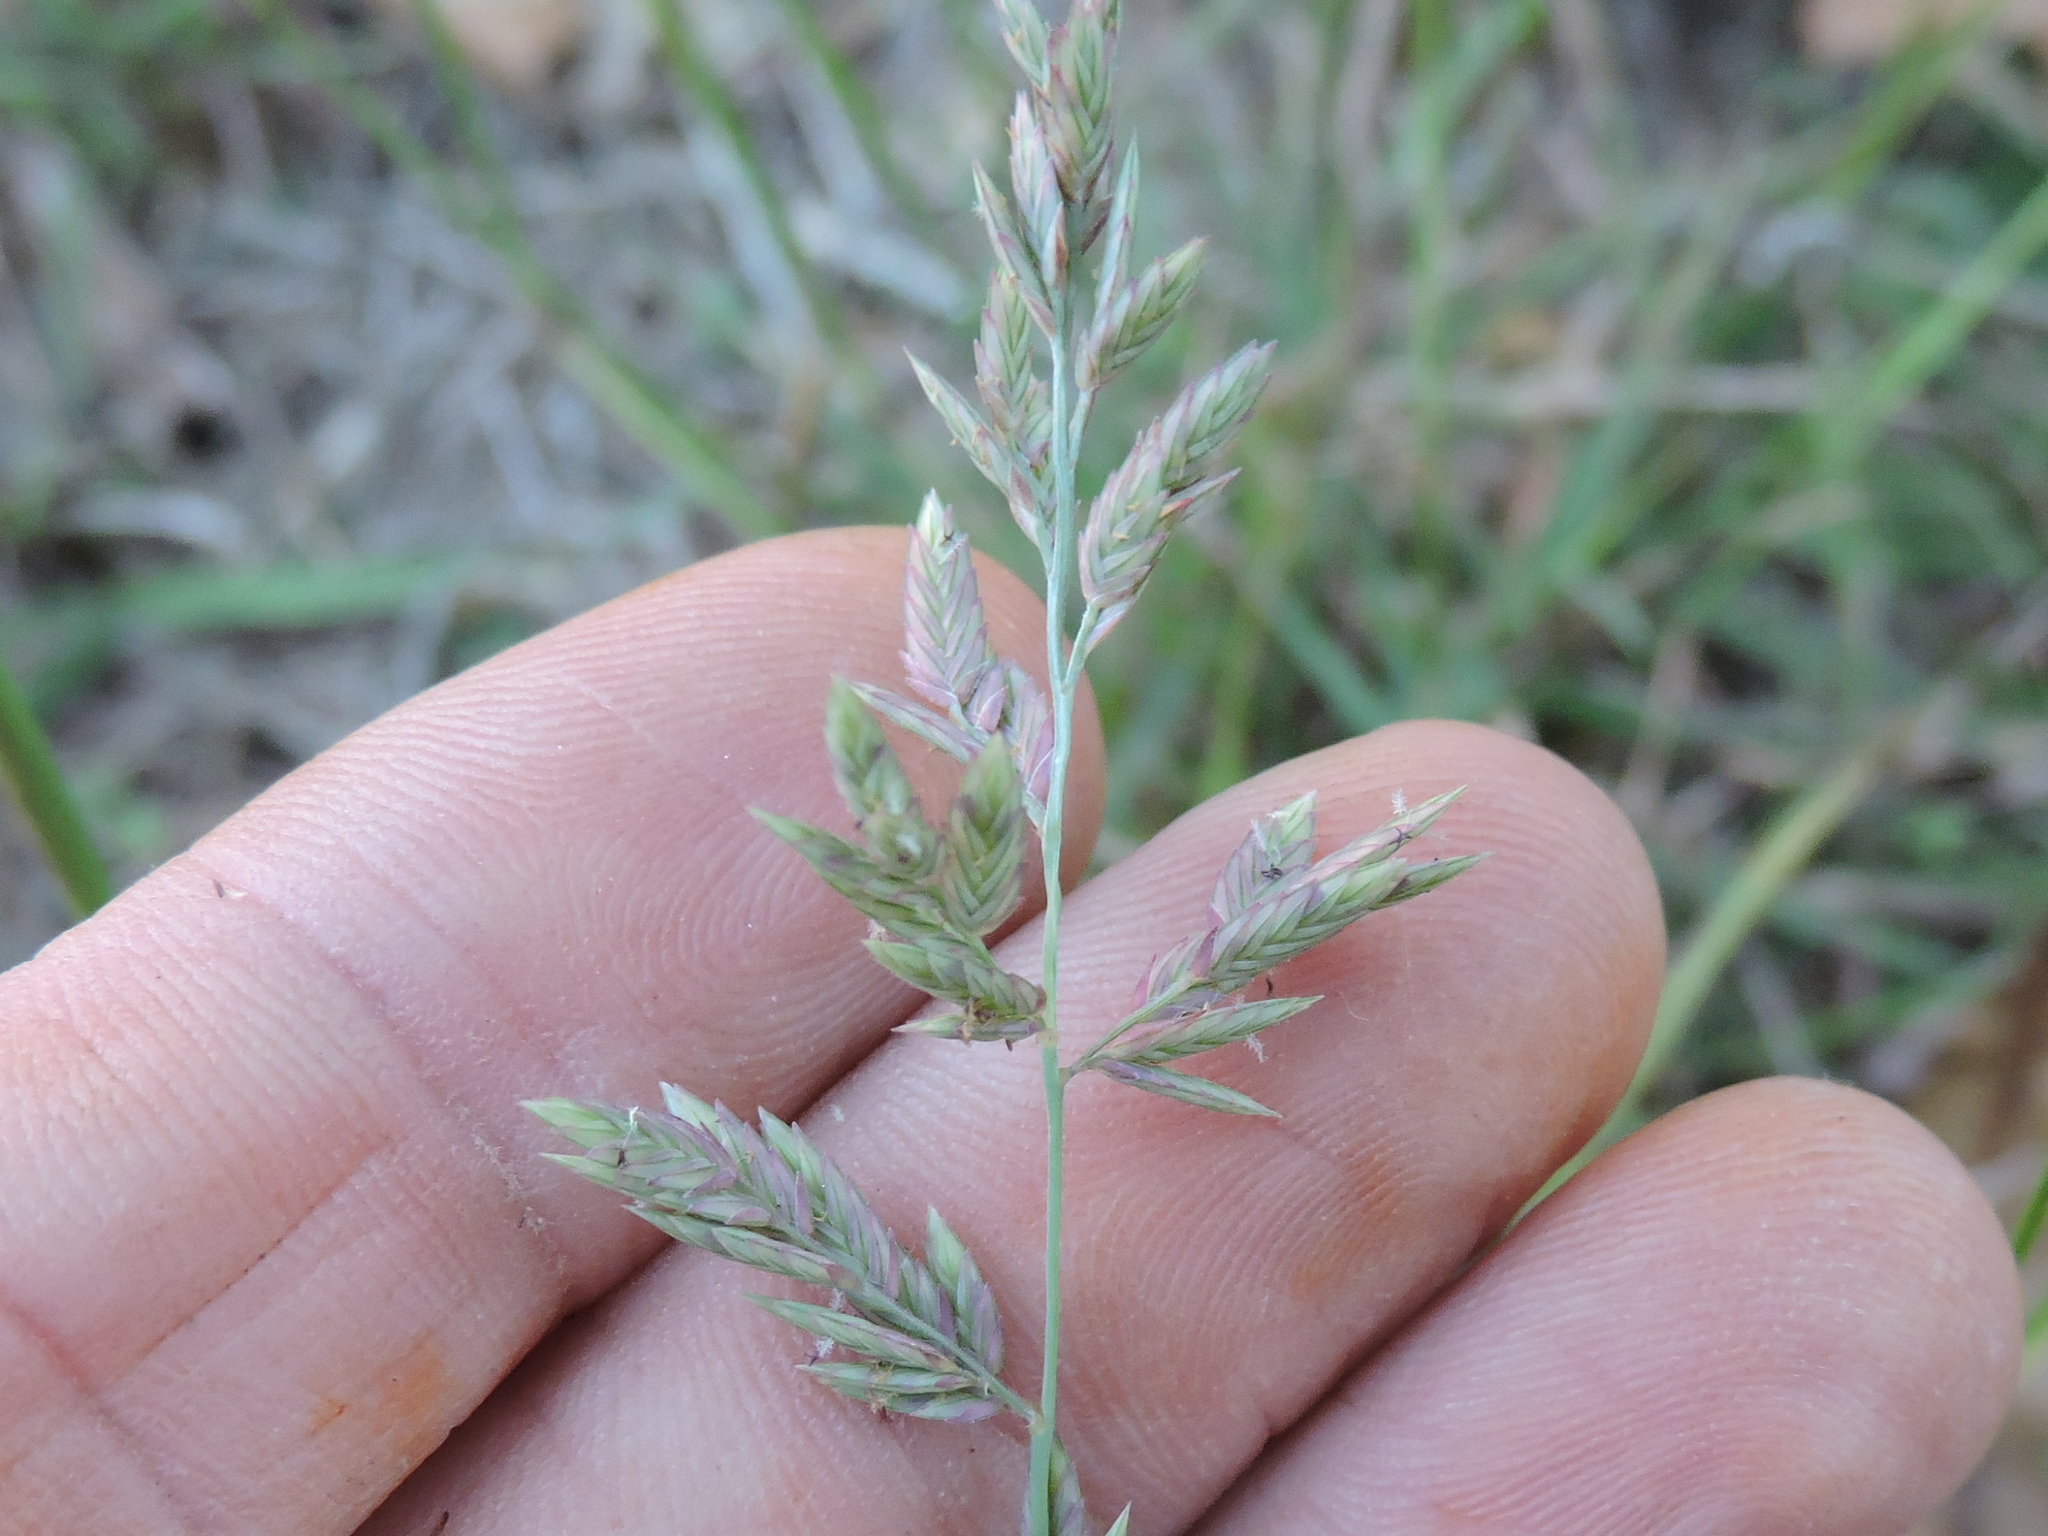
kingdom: Plantae
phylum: Tracheophyta
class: Liliopsida
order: Poales
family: Poaceae
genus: Eragrostis
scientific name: Eragrostis secundiflora
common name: Red love grass
